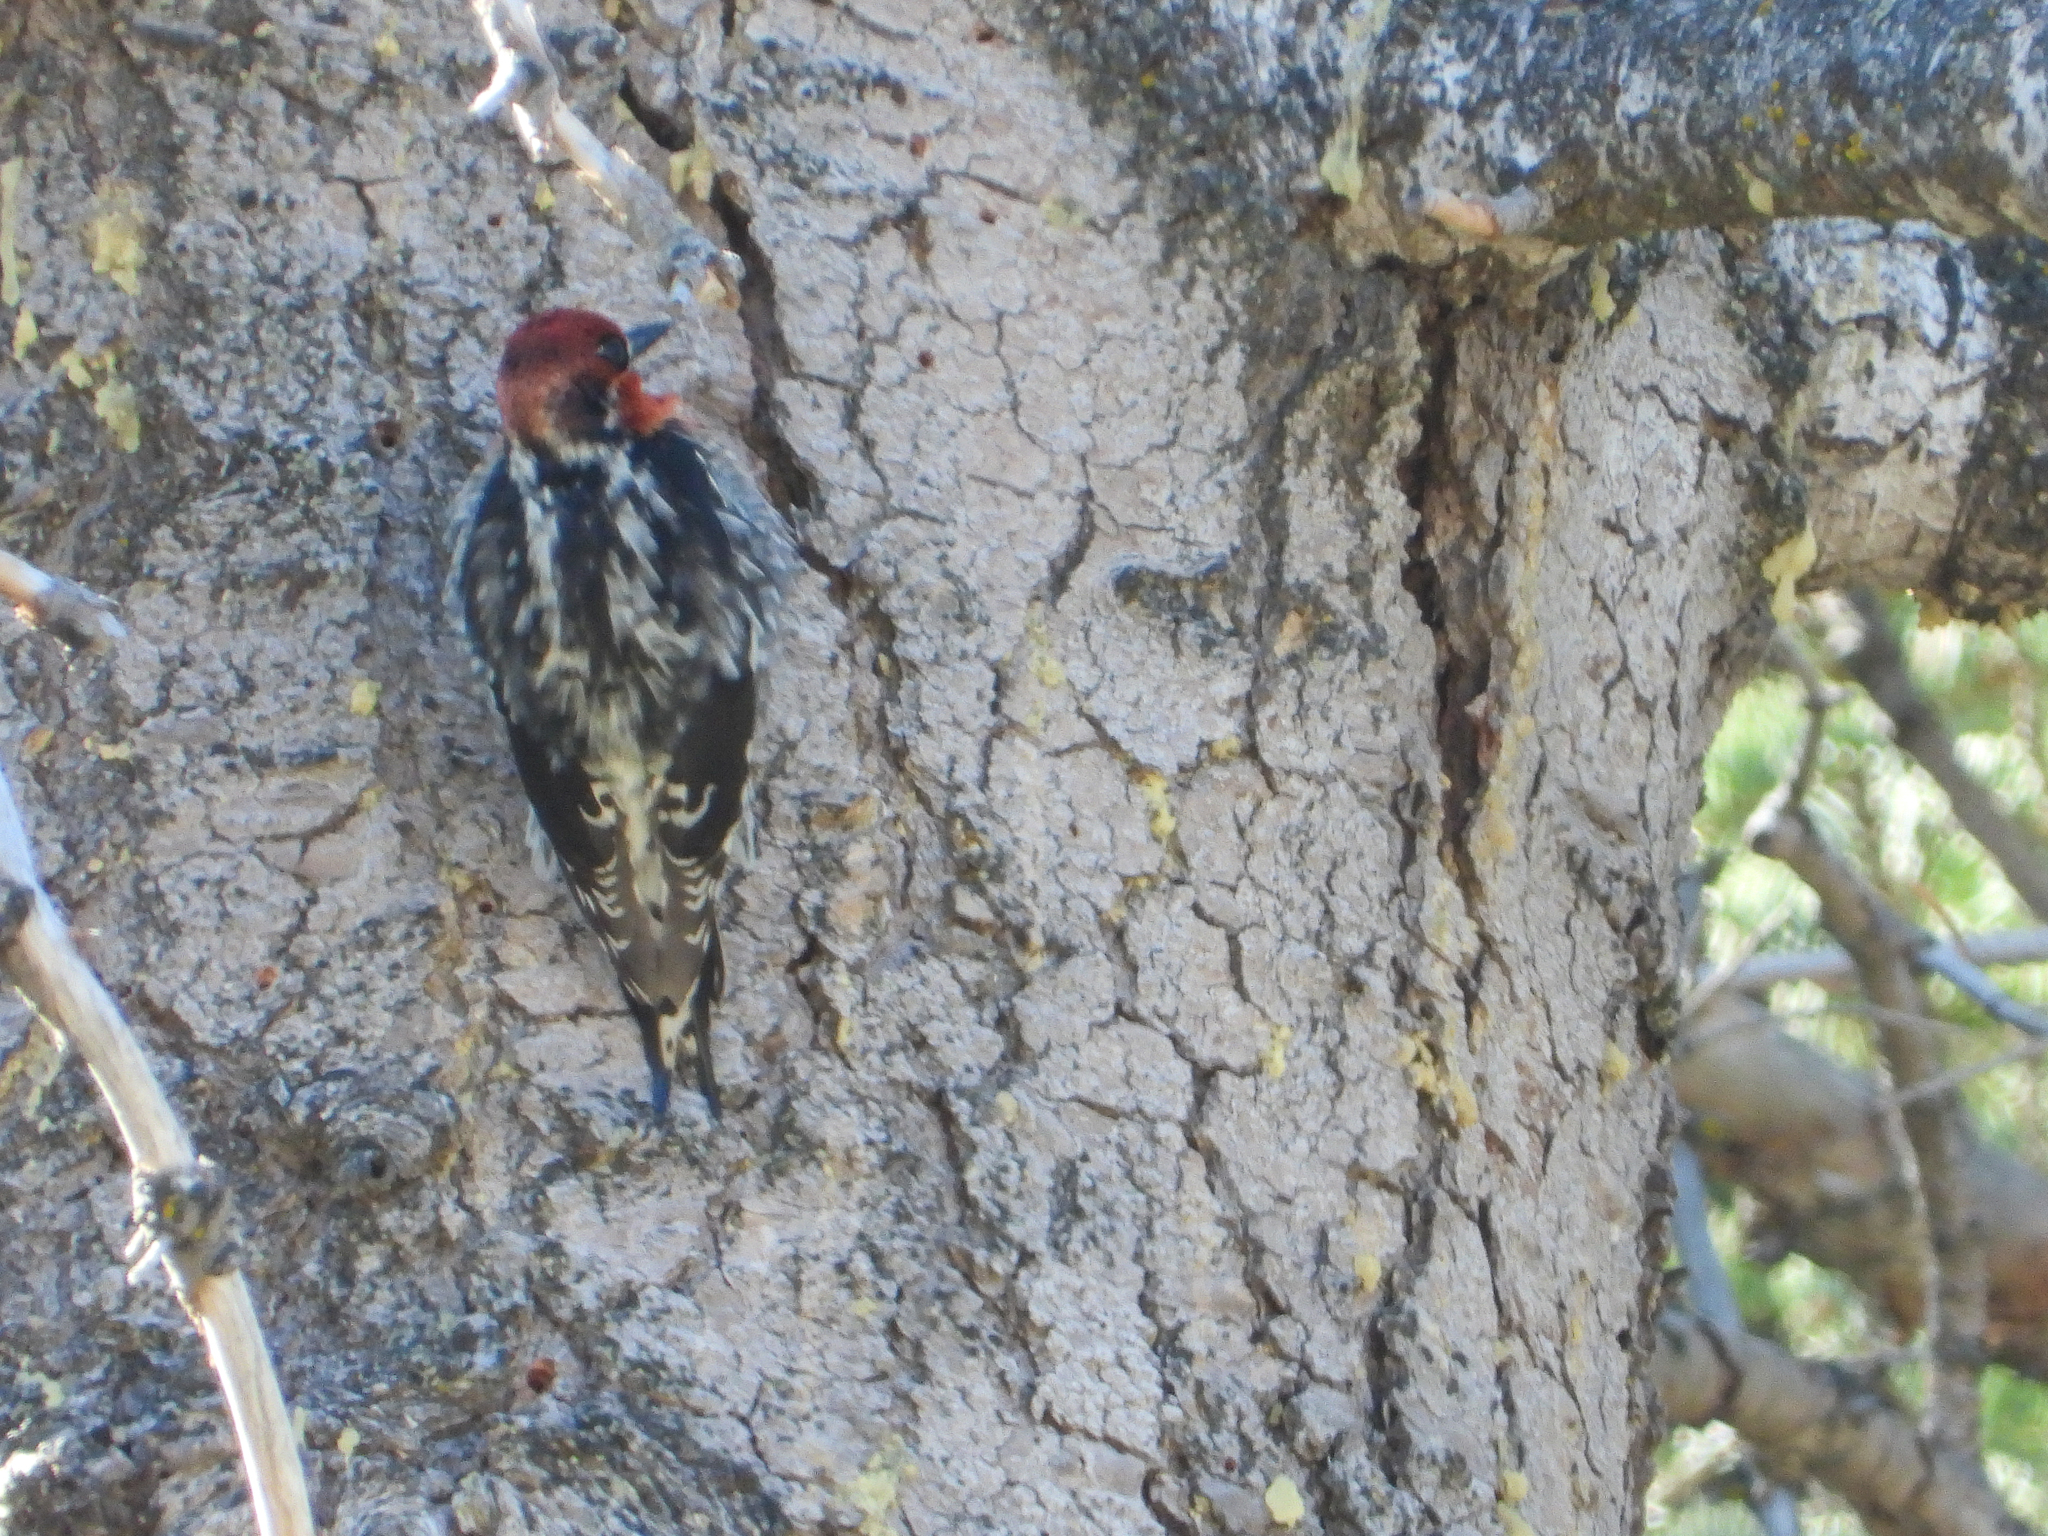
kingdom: Animalia
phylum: Chordata
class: Aves
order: Piciformes
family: Picidae
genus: Sphyrapicus
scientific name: Sphyrapicus ruber
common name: Red-breasted sapsucker
